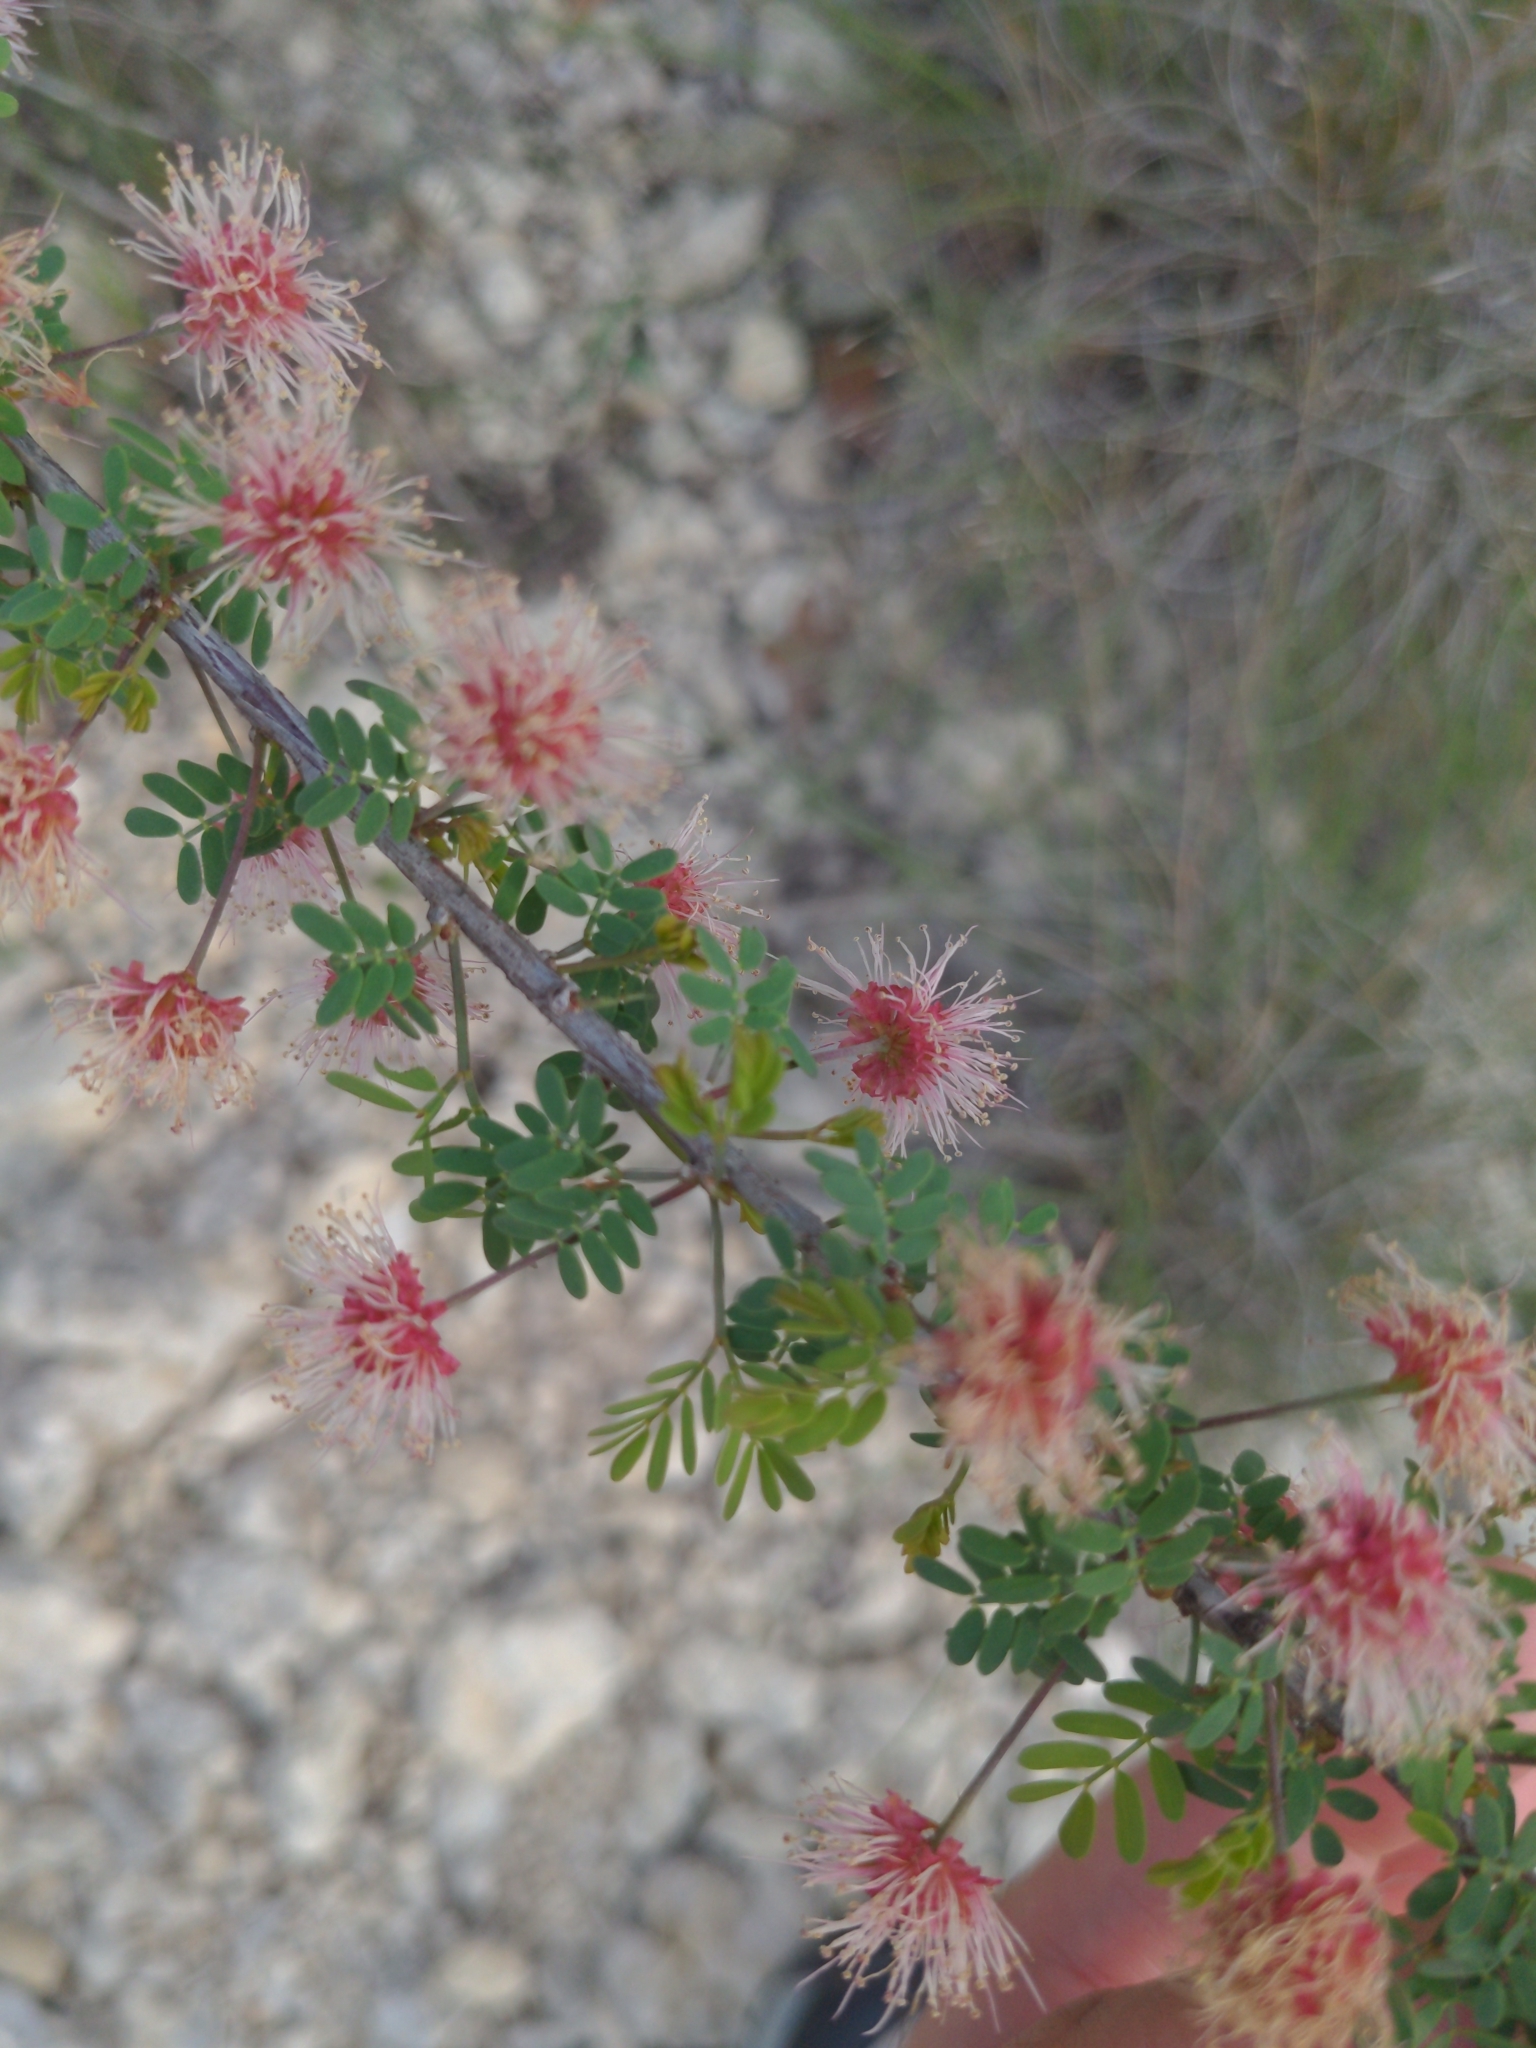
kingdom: Plantae
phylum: Tracheophyta
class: Magnoliopsida
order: Fabales
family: Fabaceae
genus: Mimosa
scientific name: Mimosa borealis
